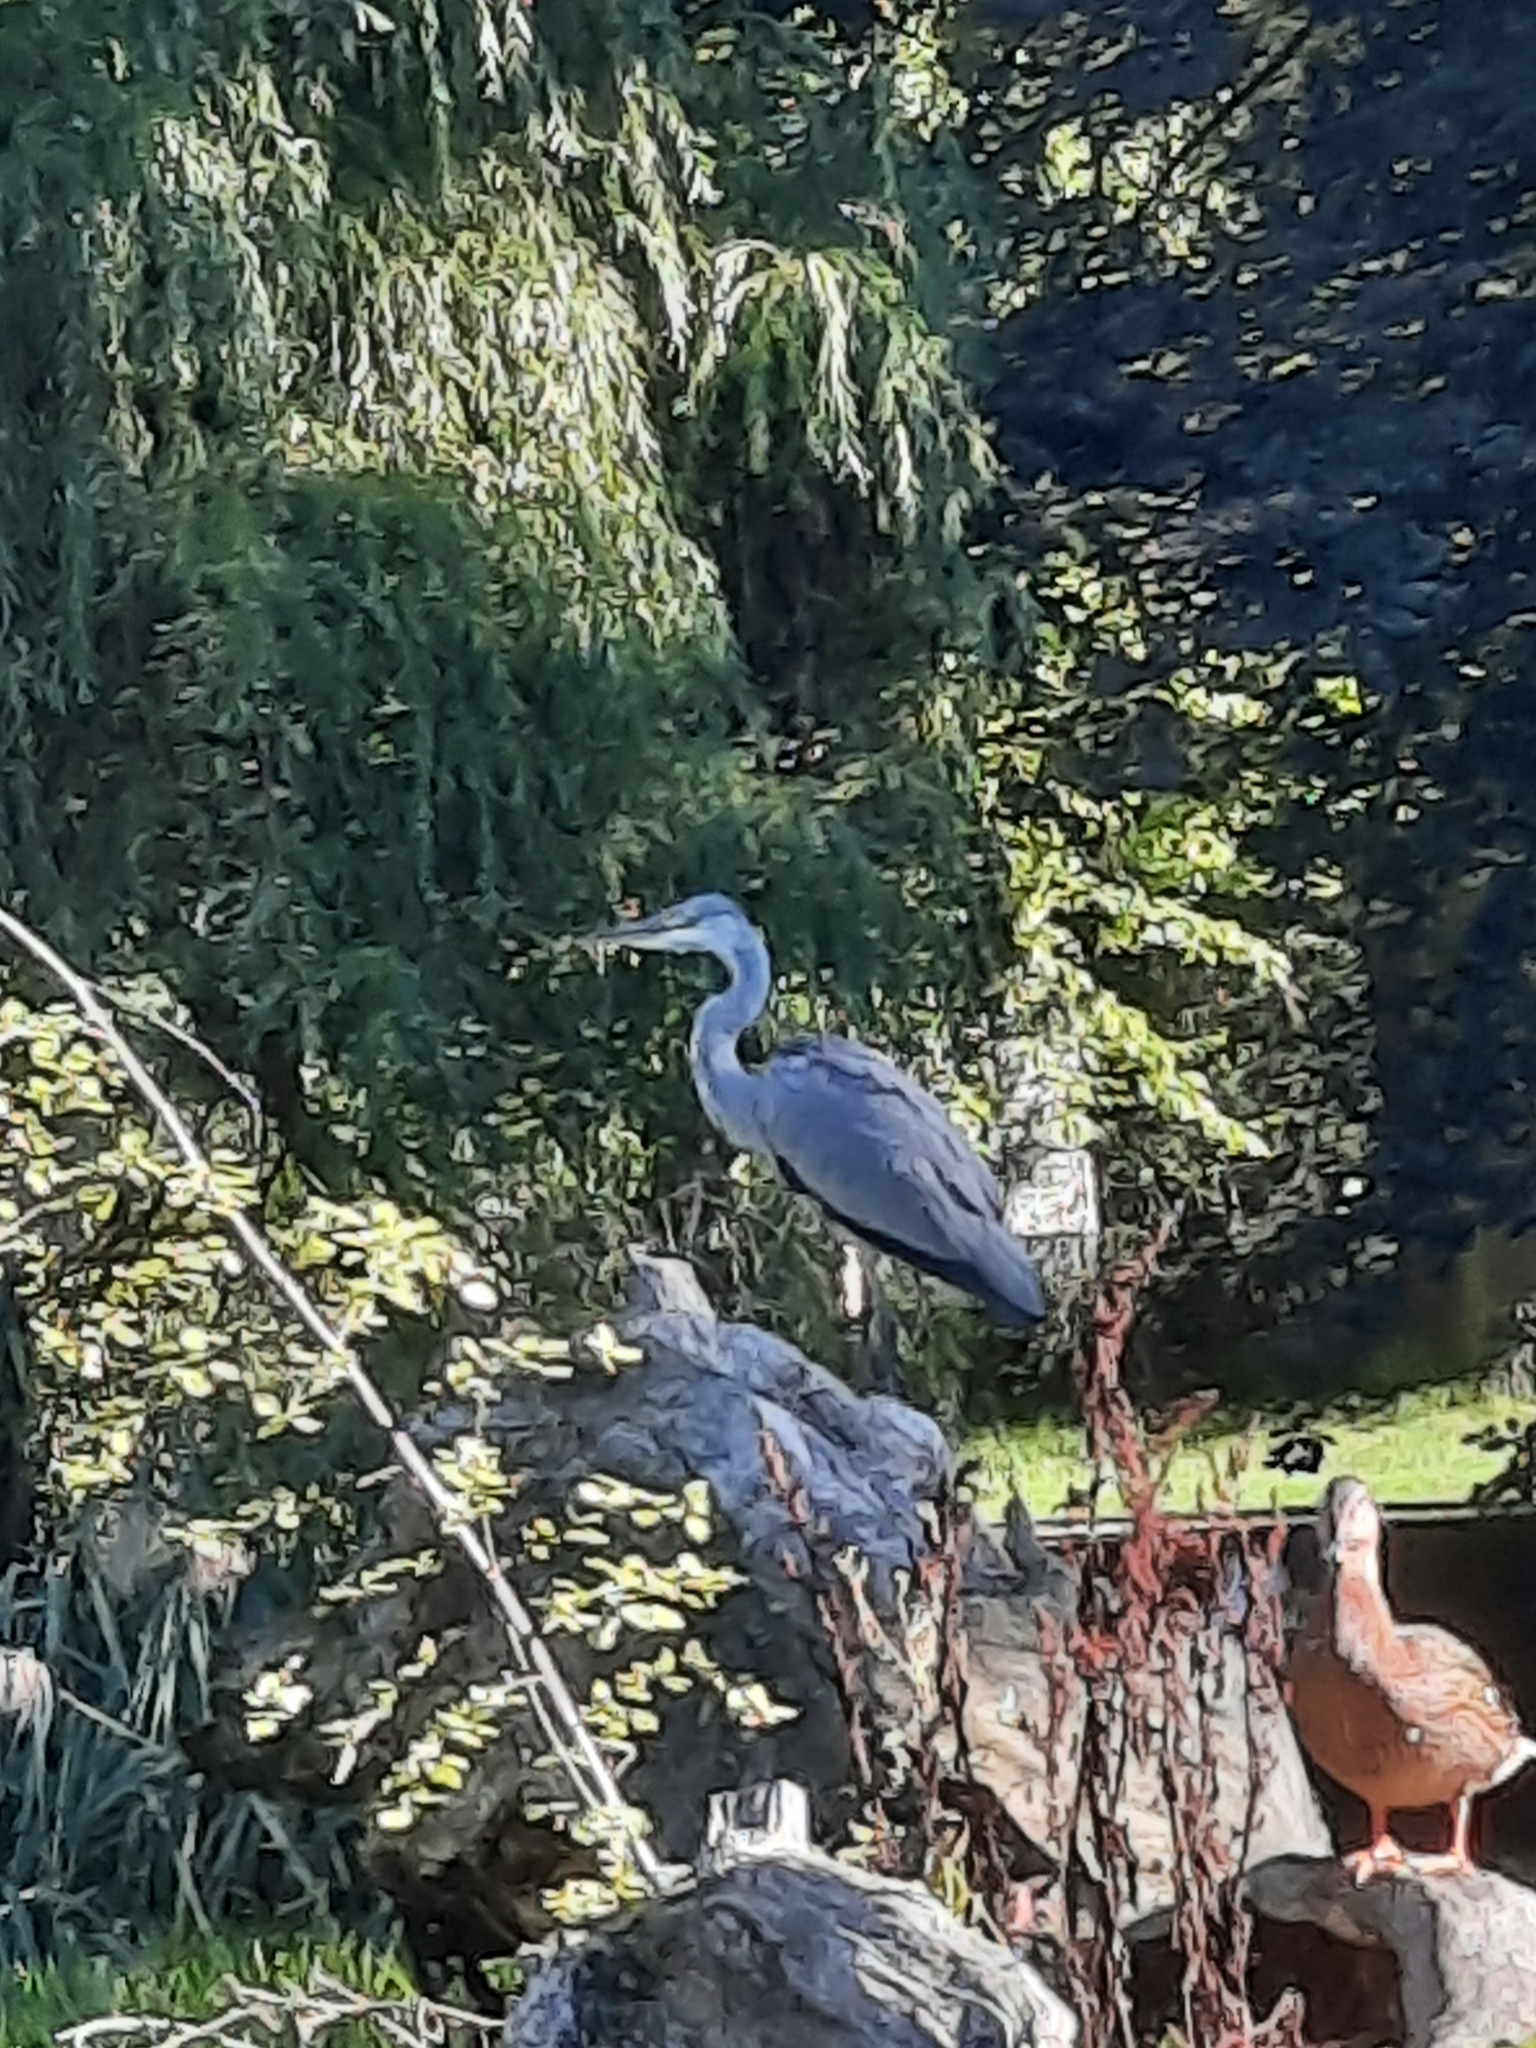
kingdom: Animalia
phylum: Chordata
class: Aves
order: Pelecaniformes
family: Ardeidae
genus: Ardea
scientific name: Ardea cinerea
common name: Grey heron
